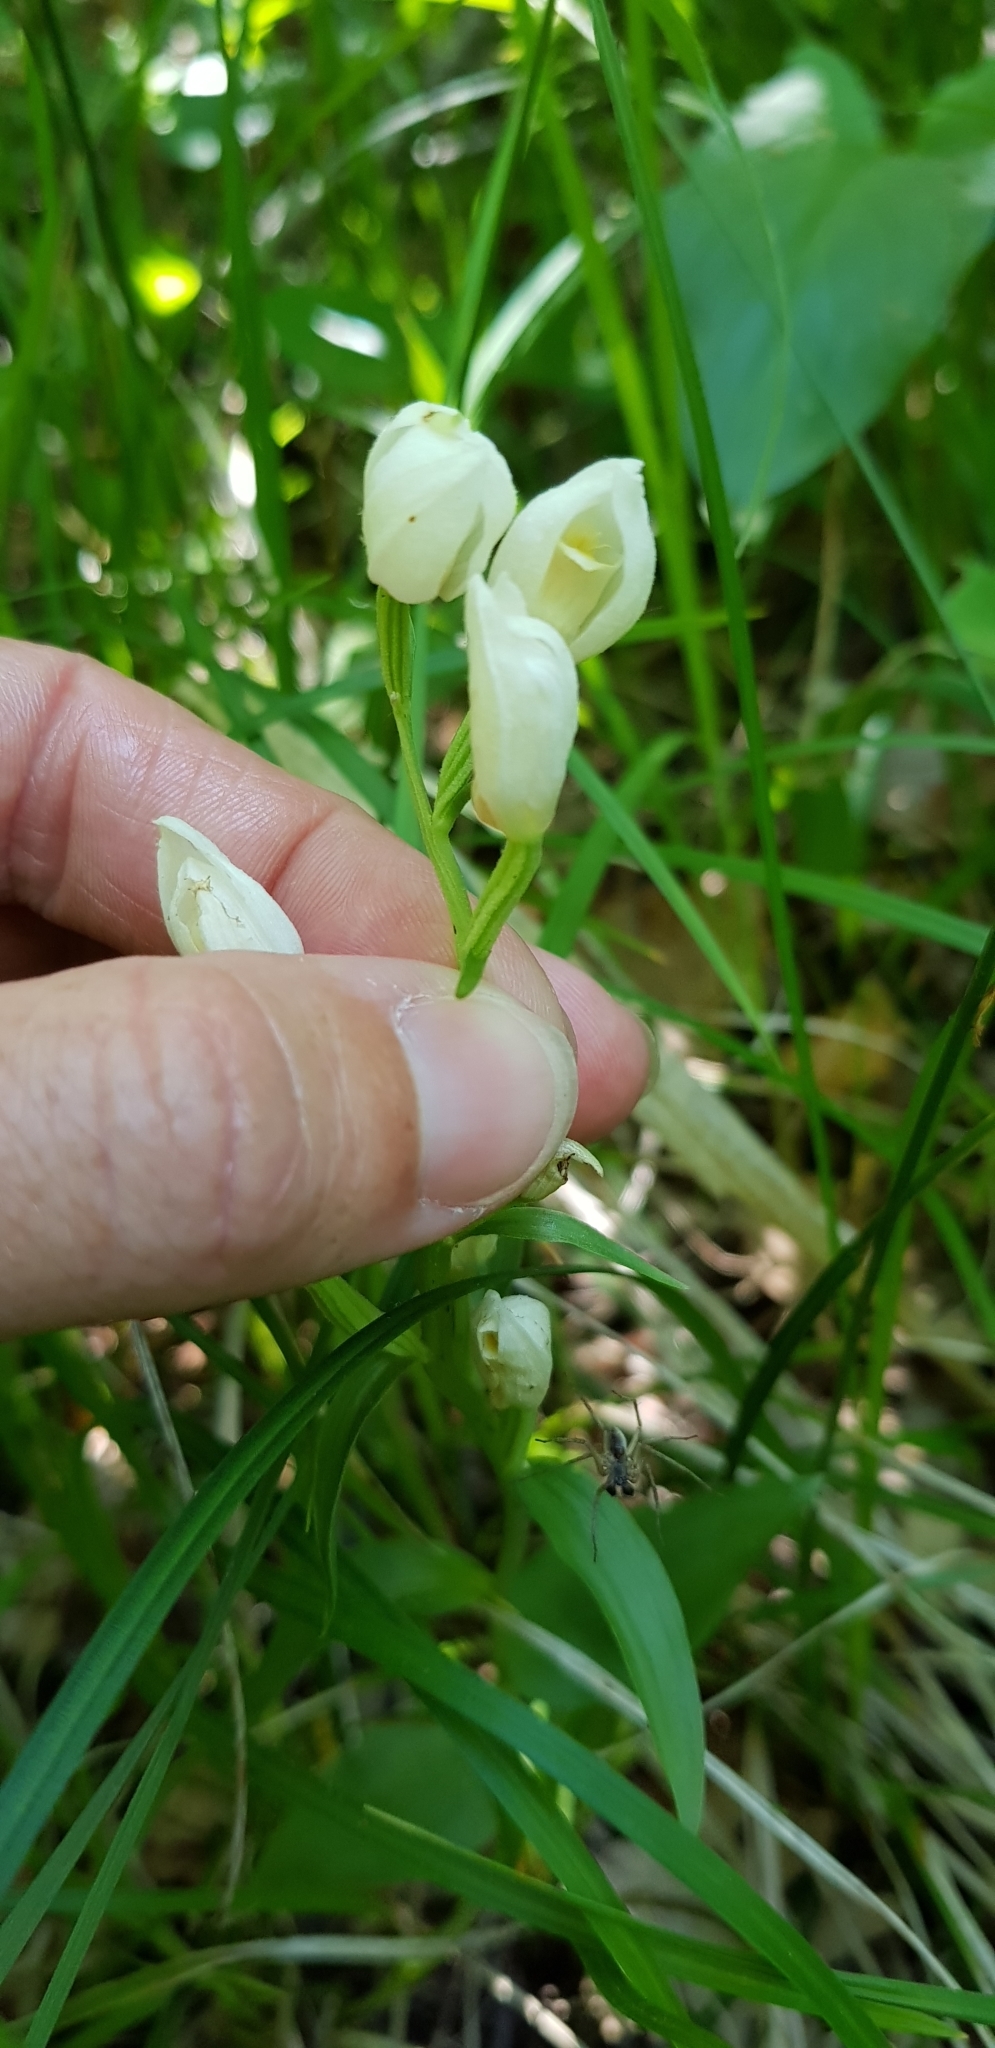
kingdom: Plantae
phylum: Tracheophyta
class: Liliopsida
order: Asparagales
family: Orchidaceae
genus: Cephalanthera
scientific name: Cephalanthera damasonium
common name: White helleborine
